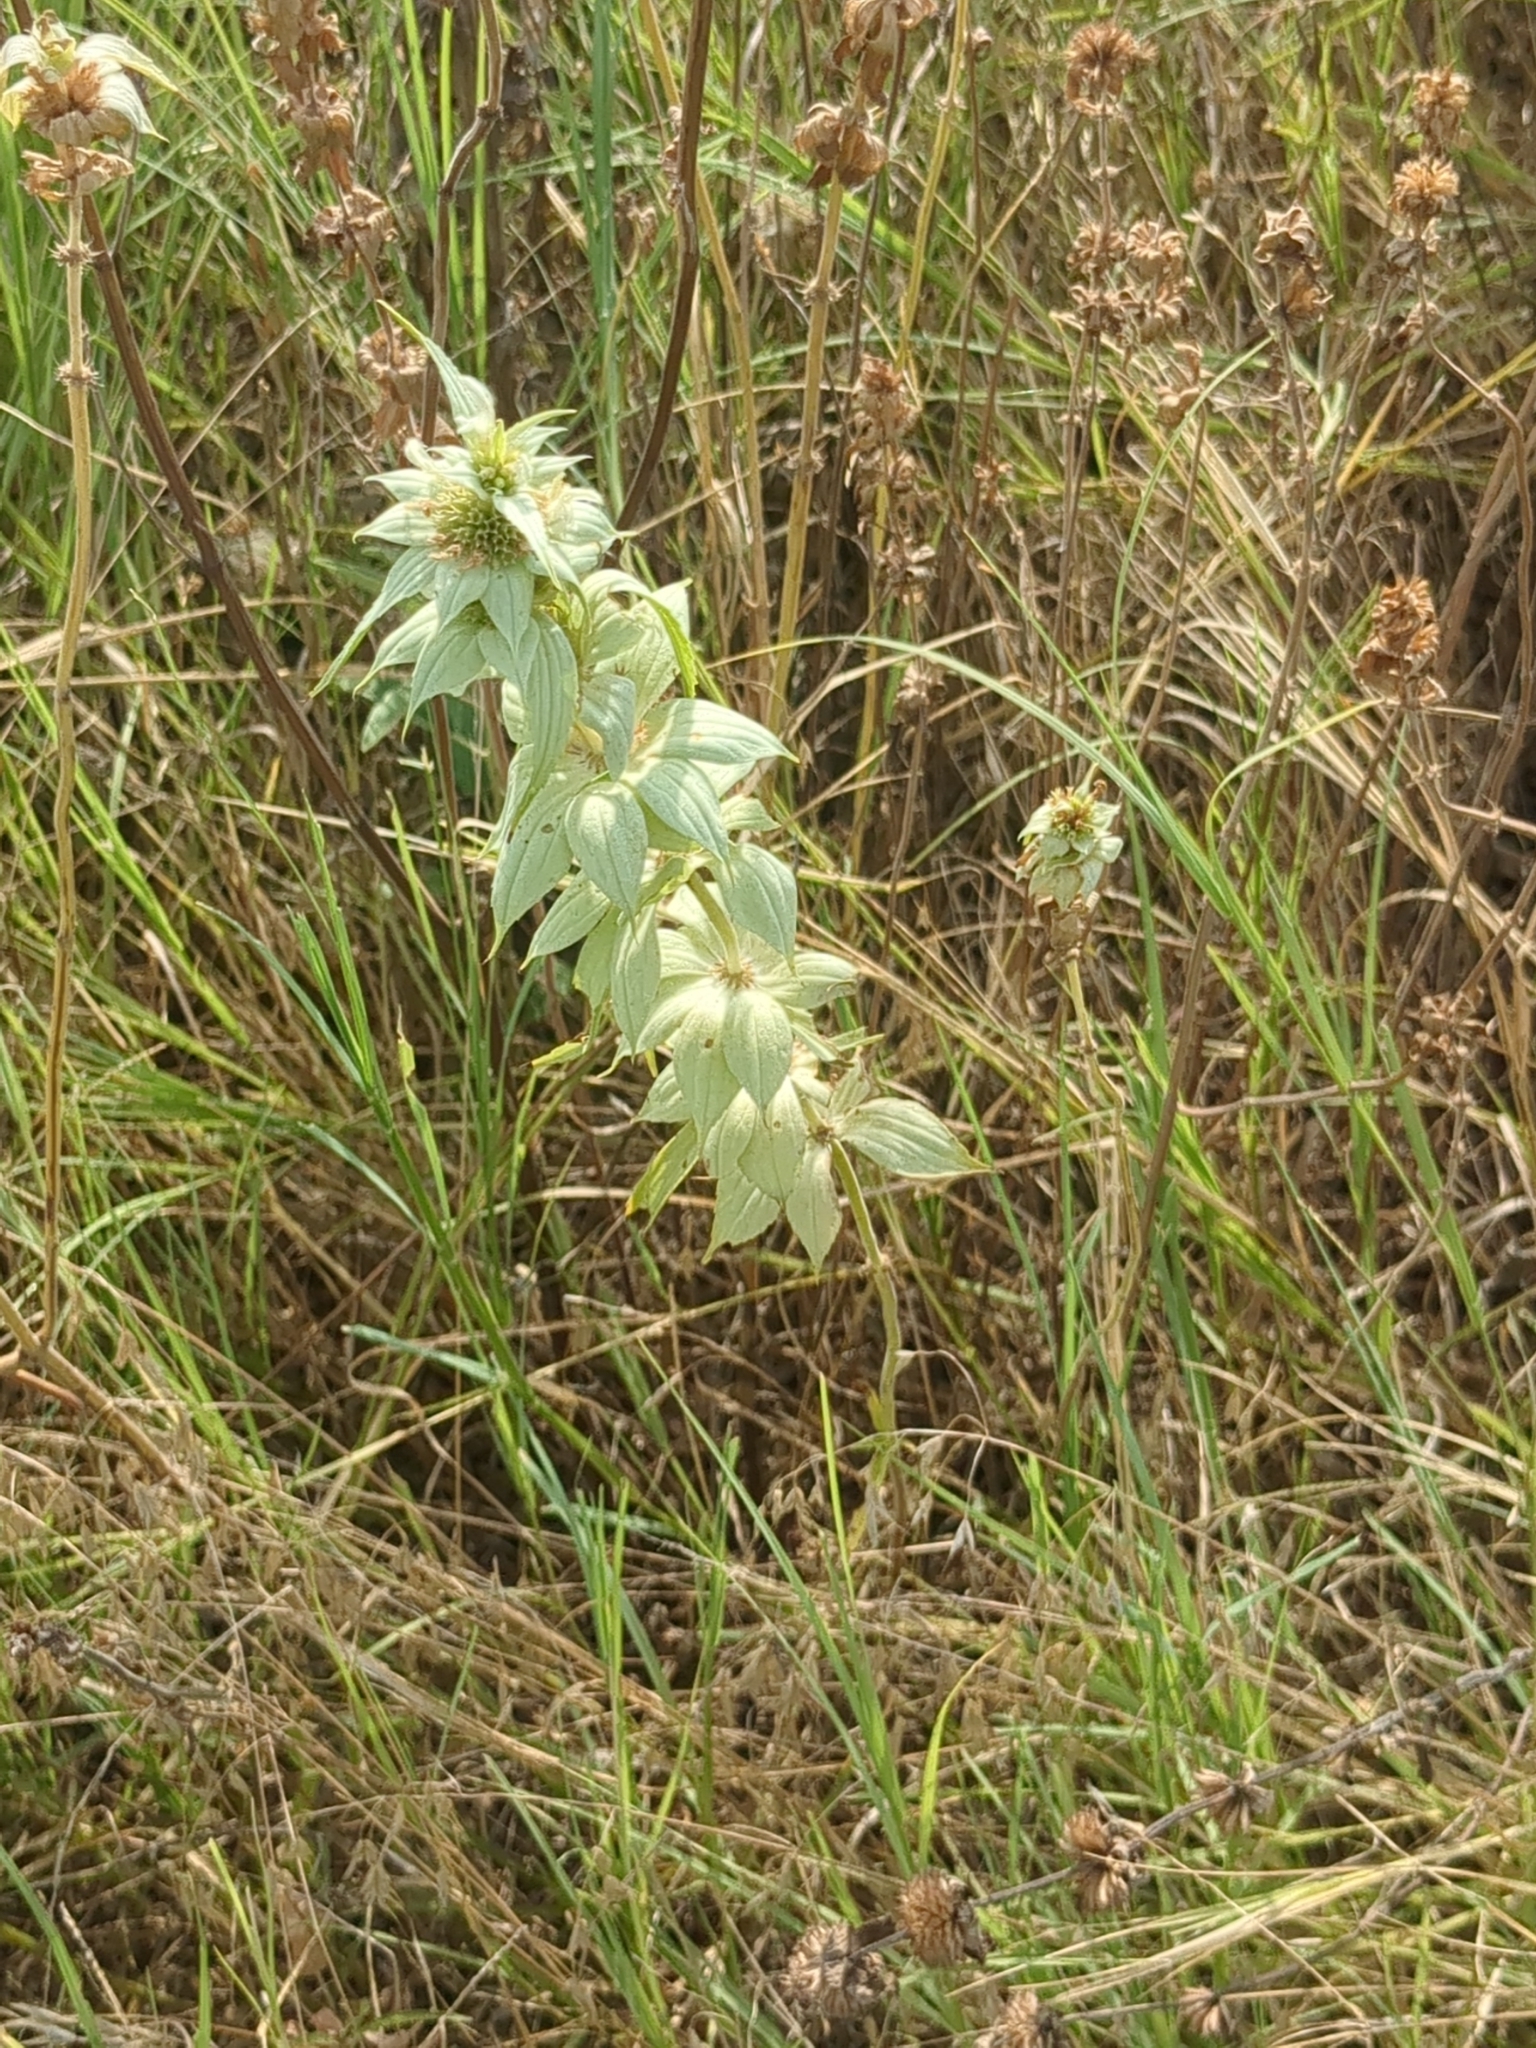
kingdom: Plantae
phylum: Tracheophyta
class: Magnoliopsida
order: Lamiales
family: Lamiaceae
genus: Monarda
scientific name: Monarda punctata
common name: Dotted monarda
